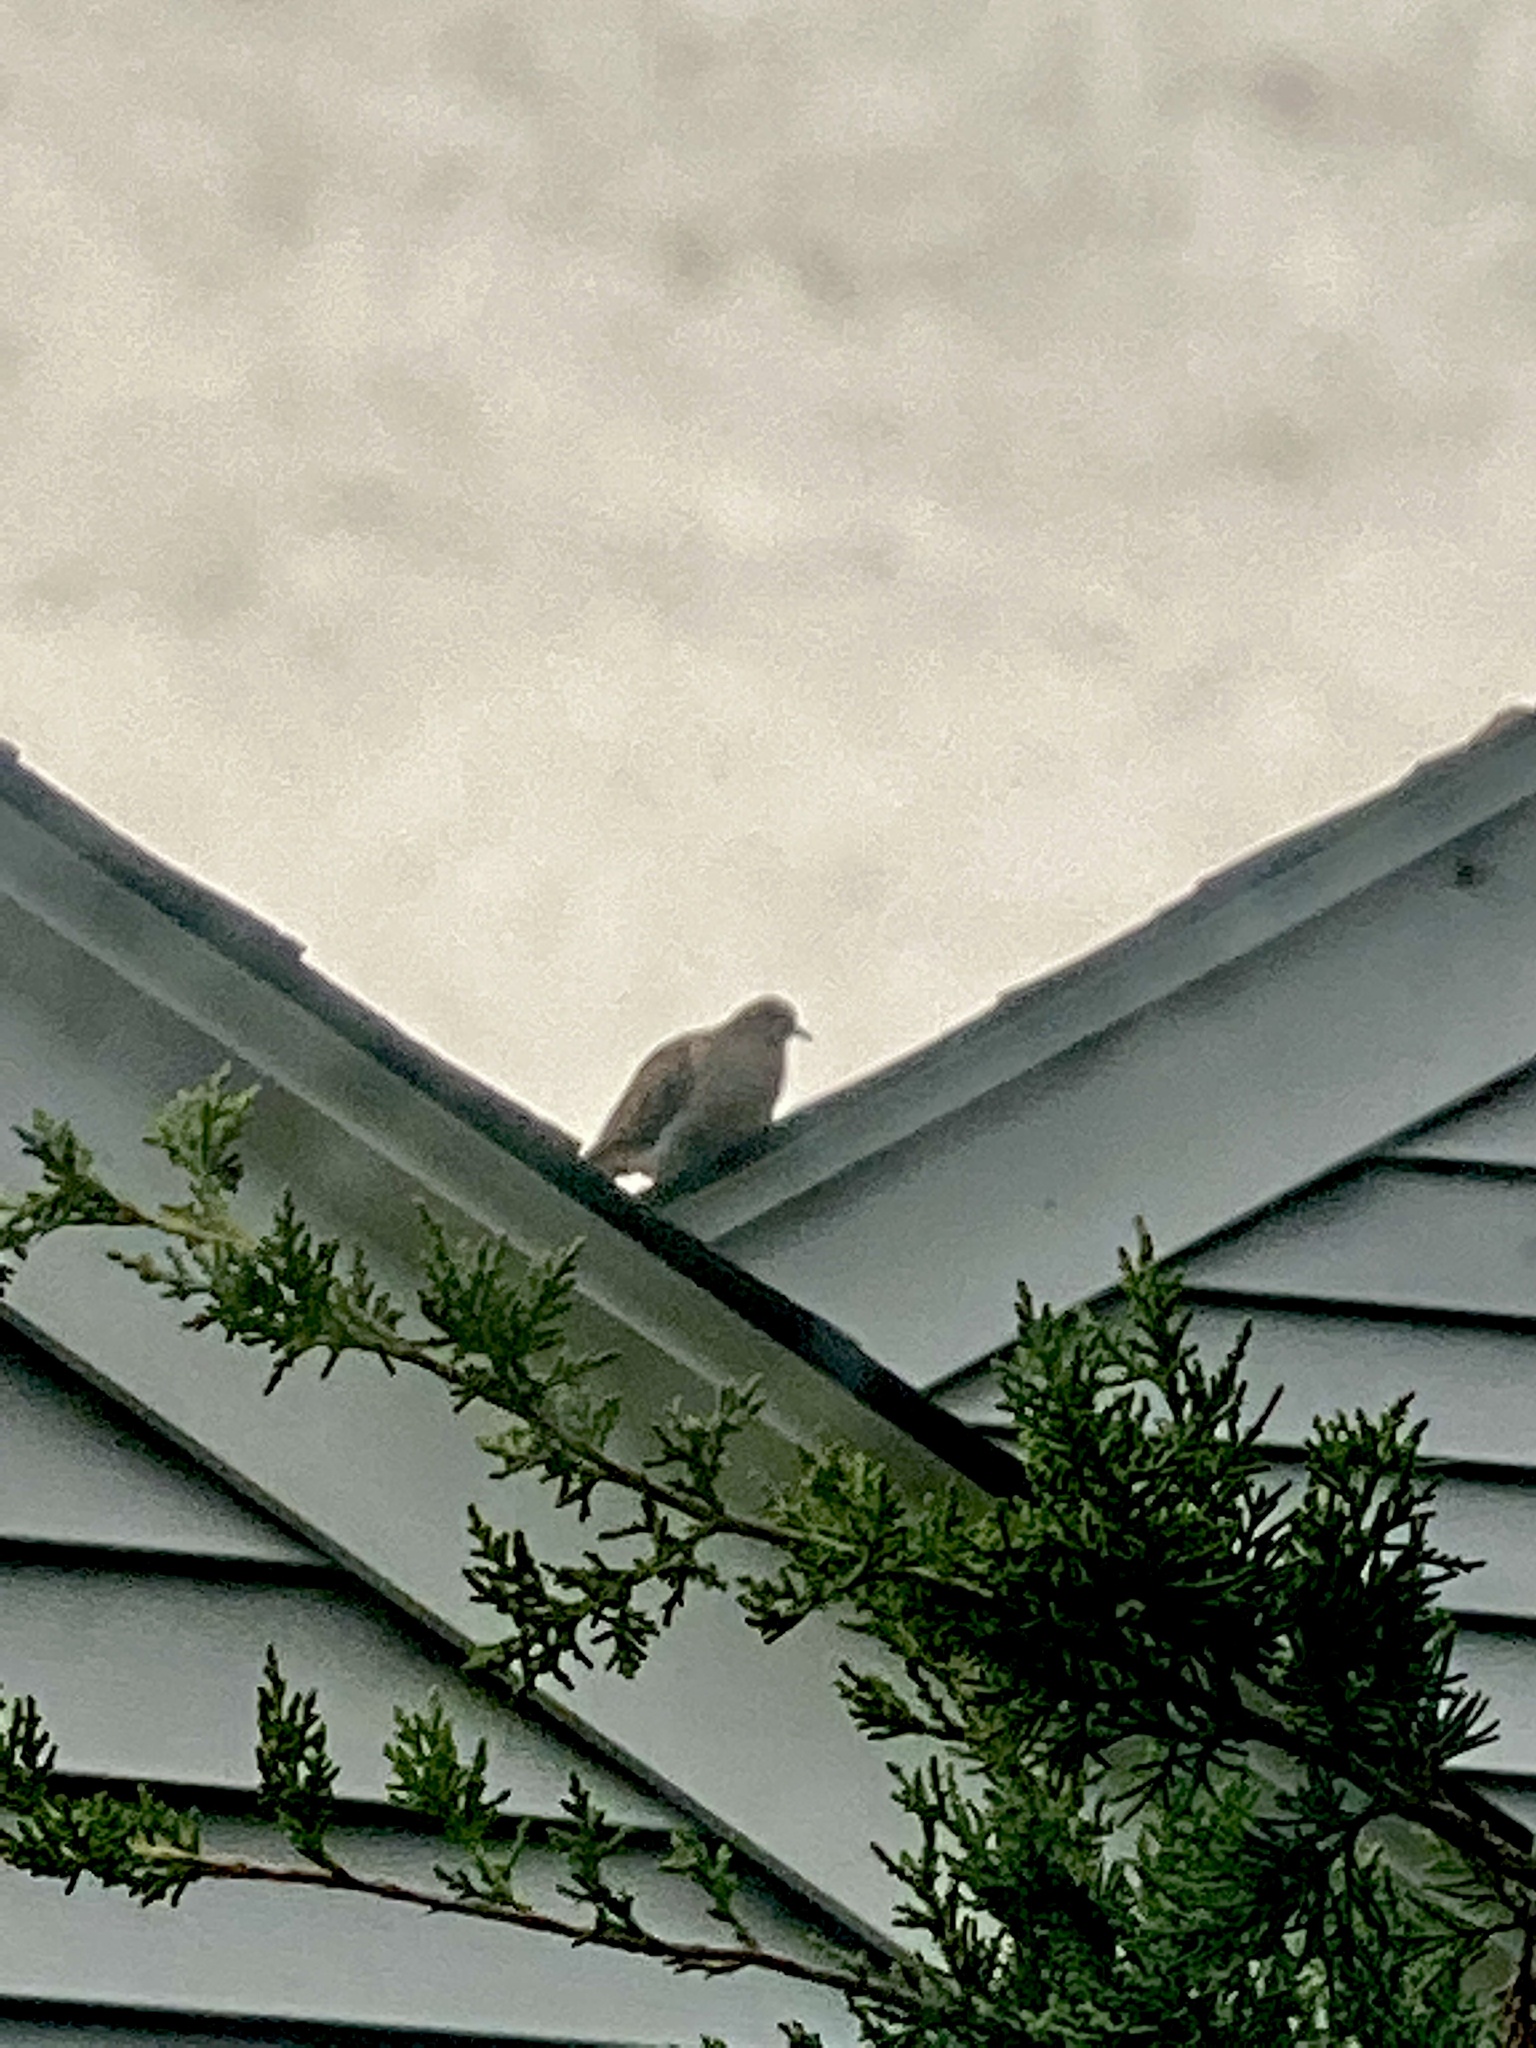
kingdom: Animalia
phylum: Chordata
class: Aves
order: Columbiformes
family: Columbidae
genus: Zenaida
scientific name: Zenaida macroura
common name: Mourning dove
